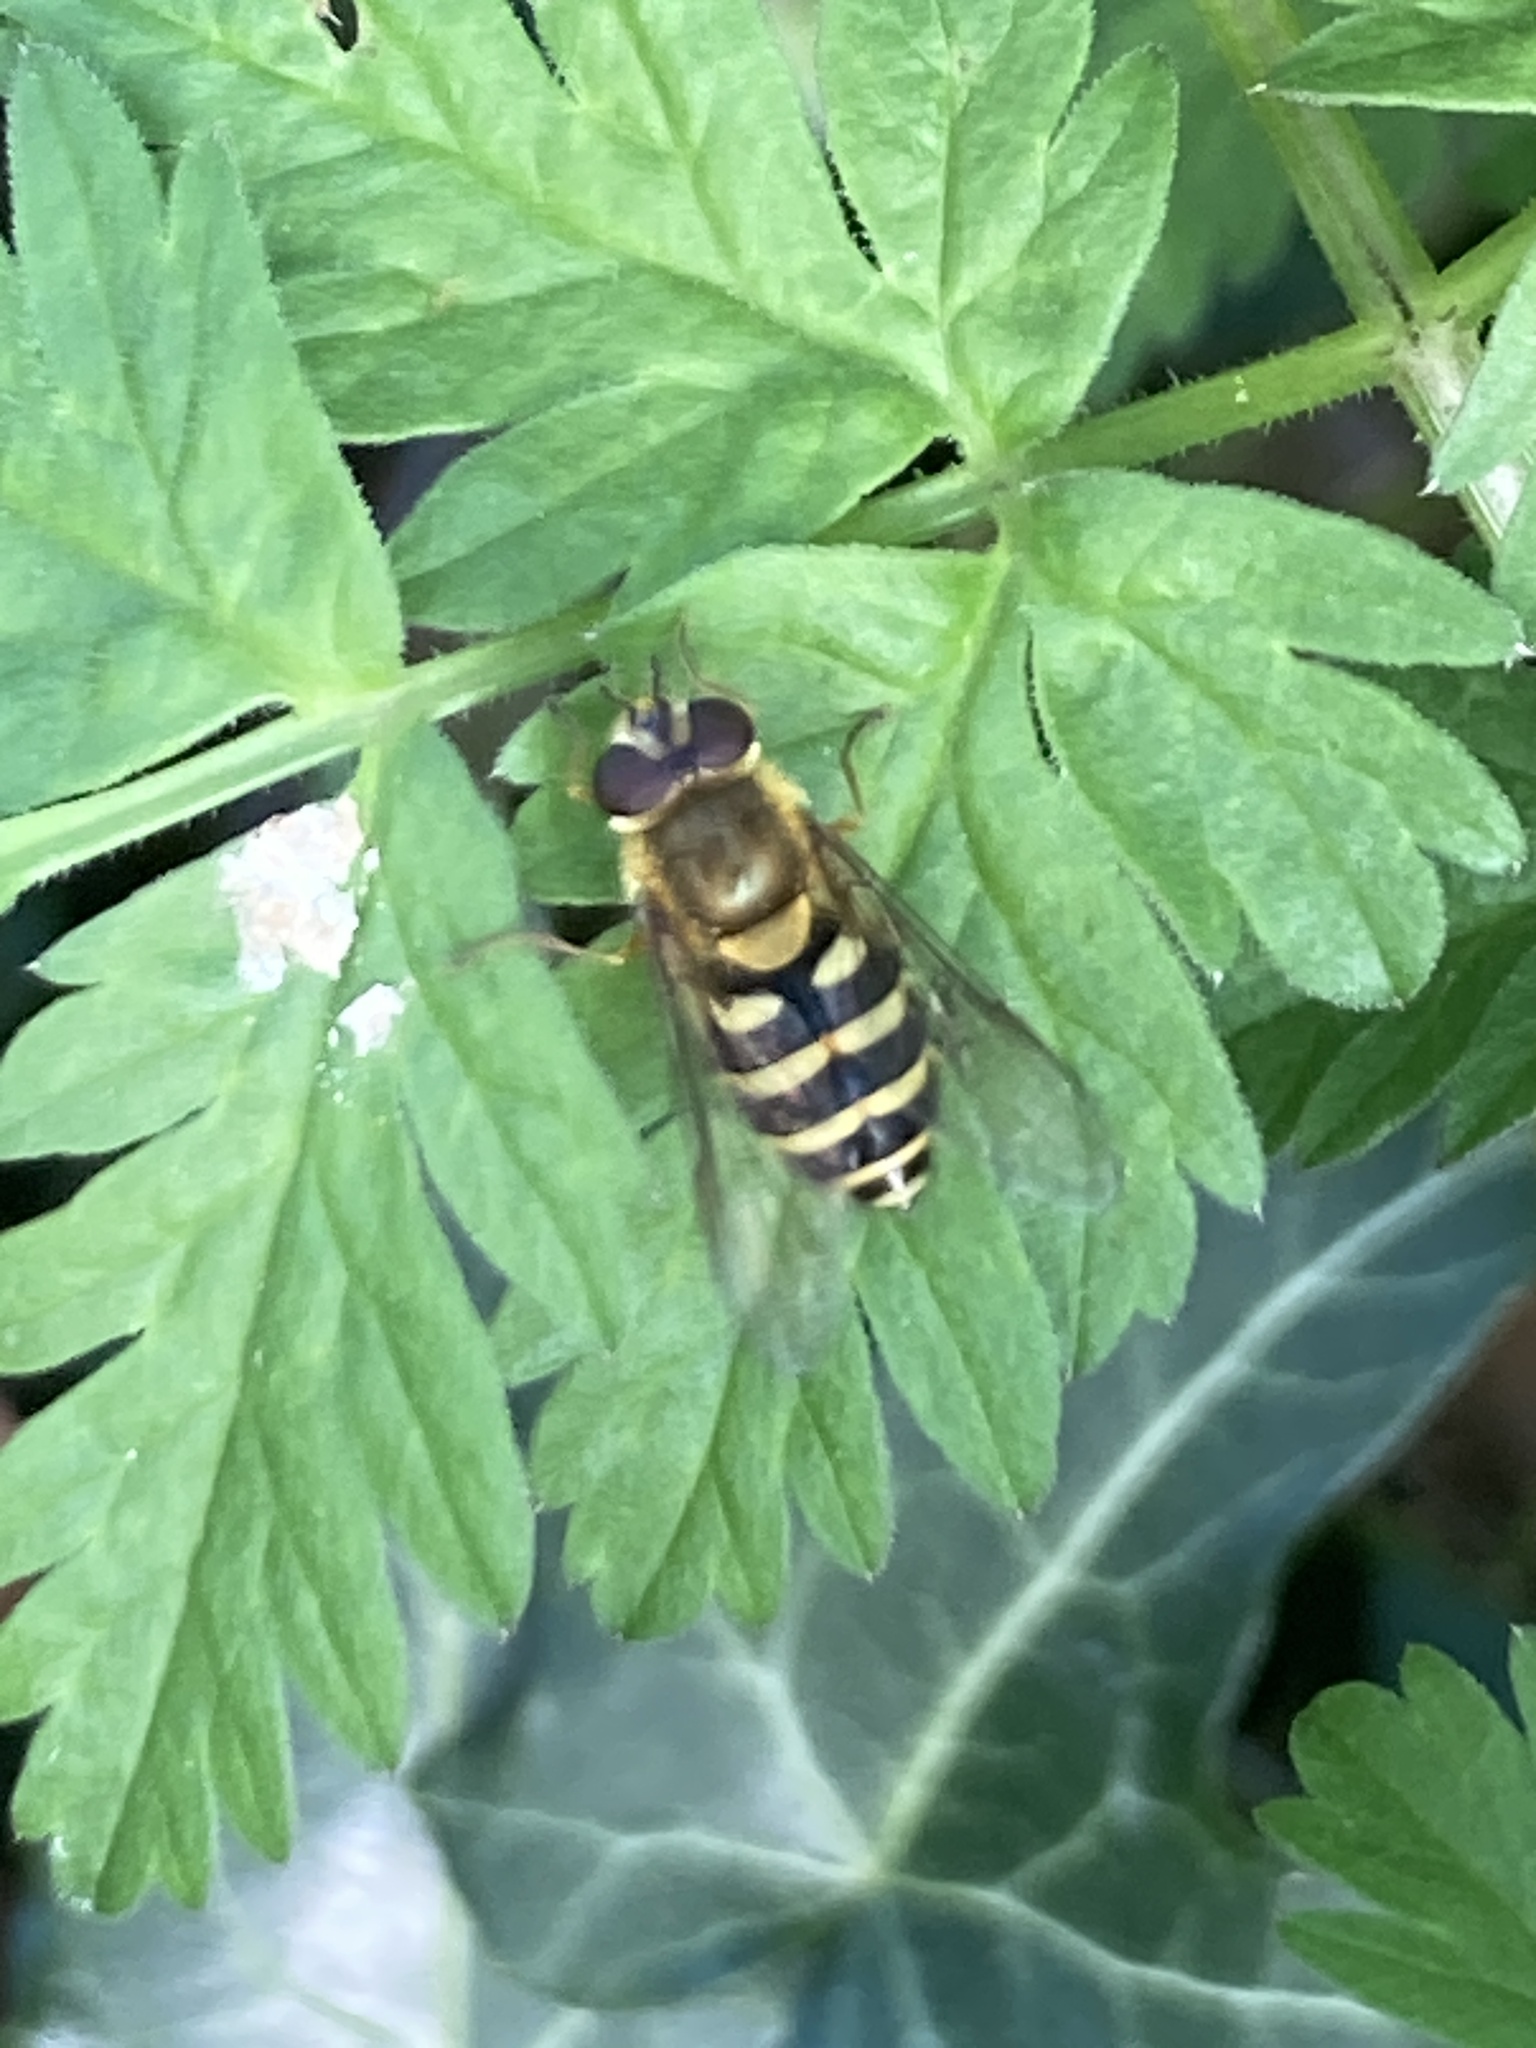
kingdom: Animalia
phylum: Arthropoda
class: Insecta
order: Diptera
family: Syrphidae
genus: Syrphus
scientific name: Syrphus
